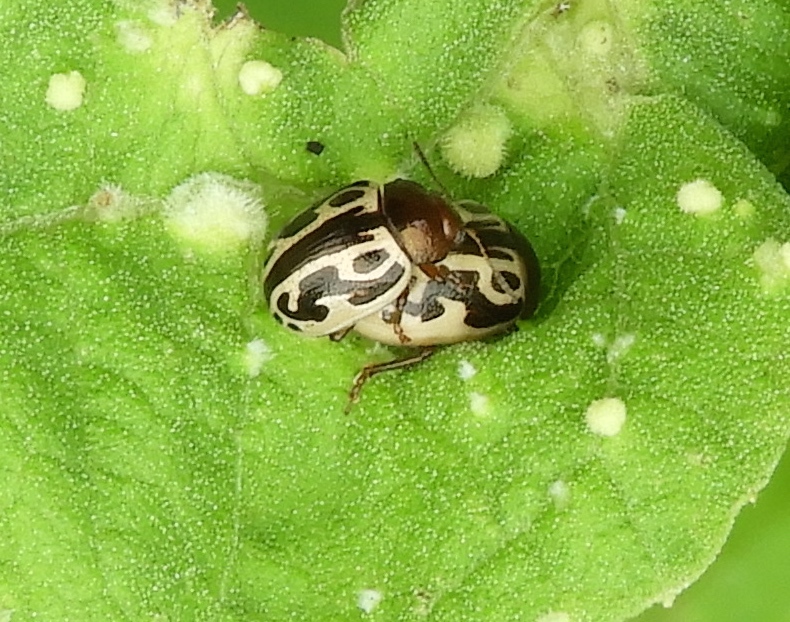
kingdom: Animalia
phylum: Arthropoda
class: Insecta
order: Coleoptera
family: Chrysomelidae
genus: Calligrapha
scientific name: Calligrapha
